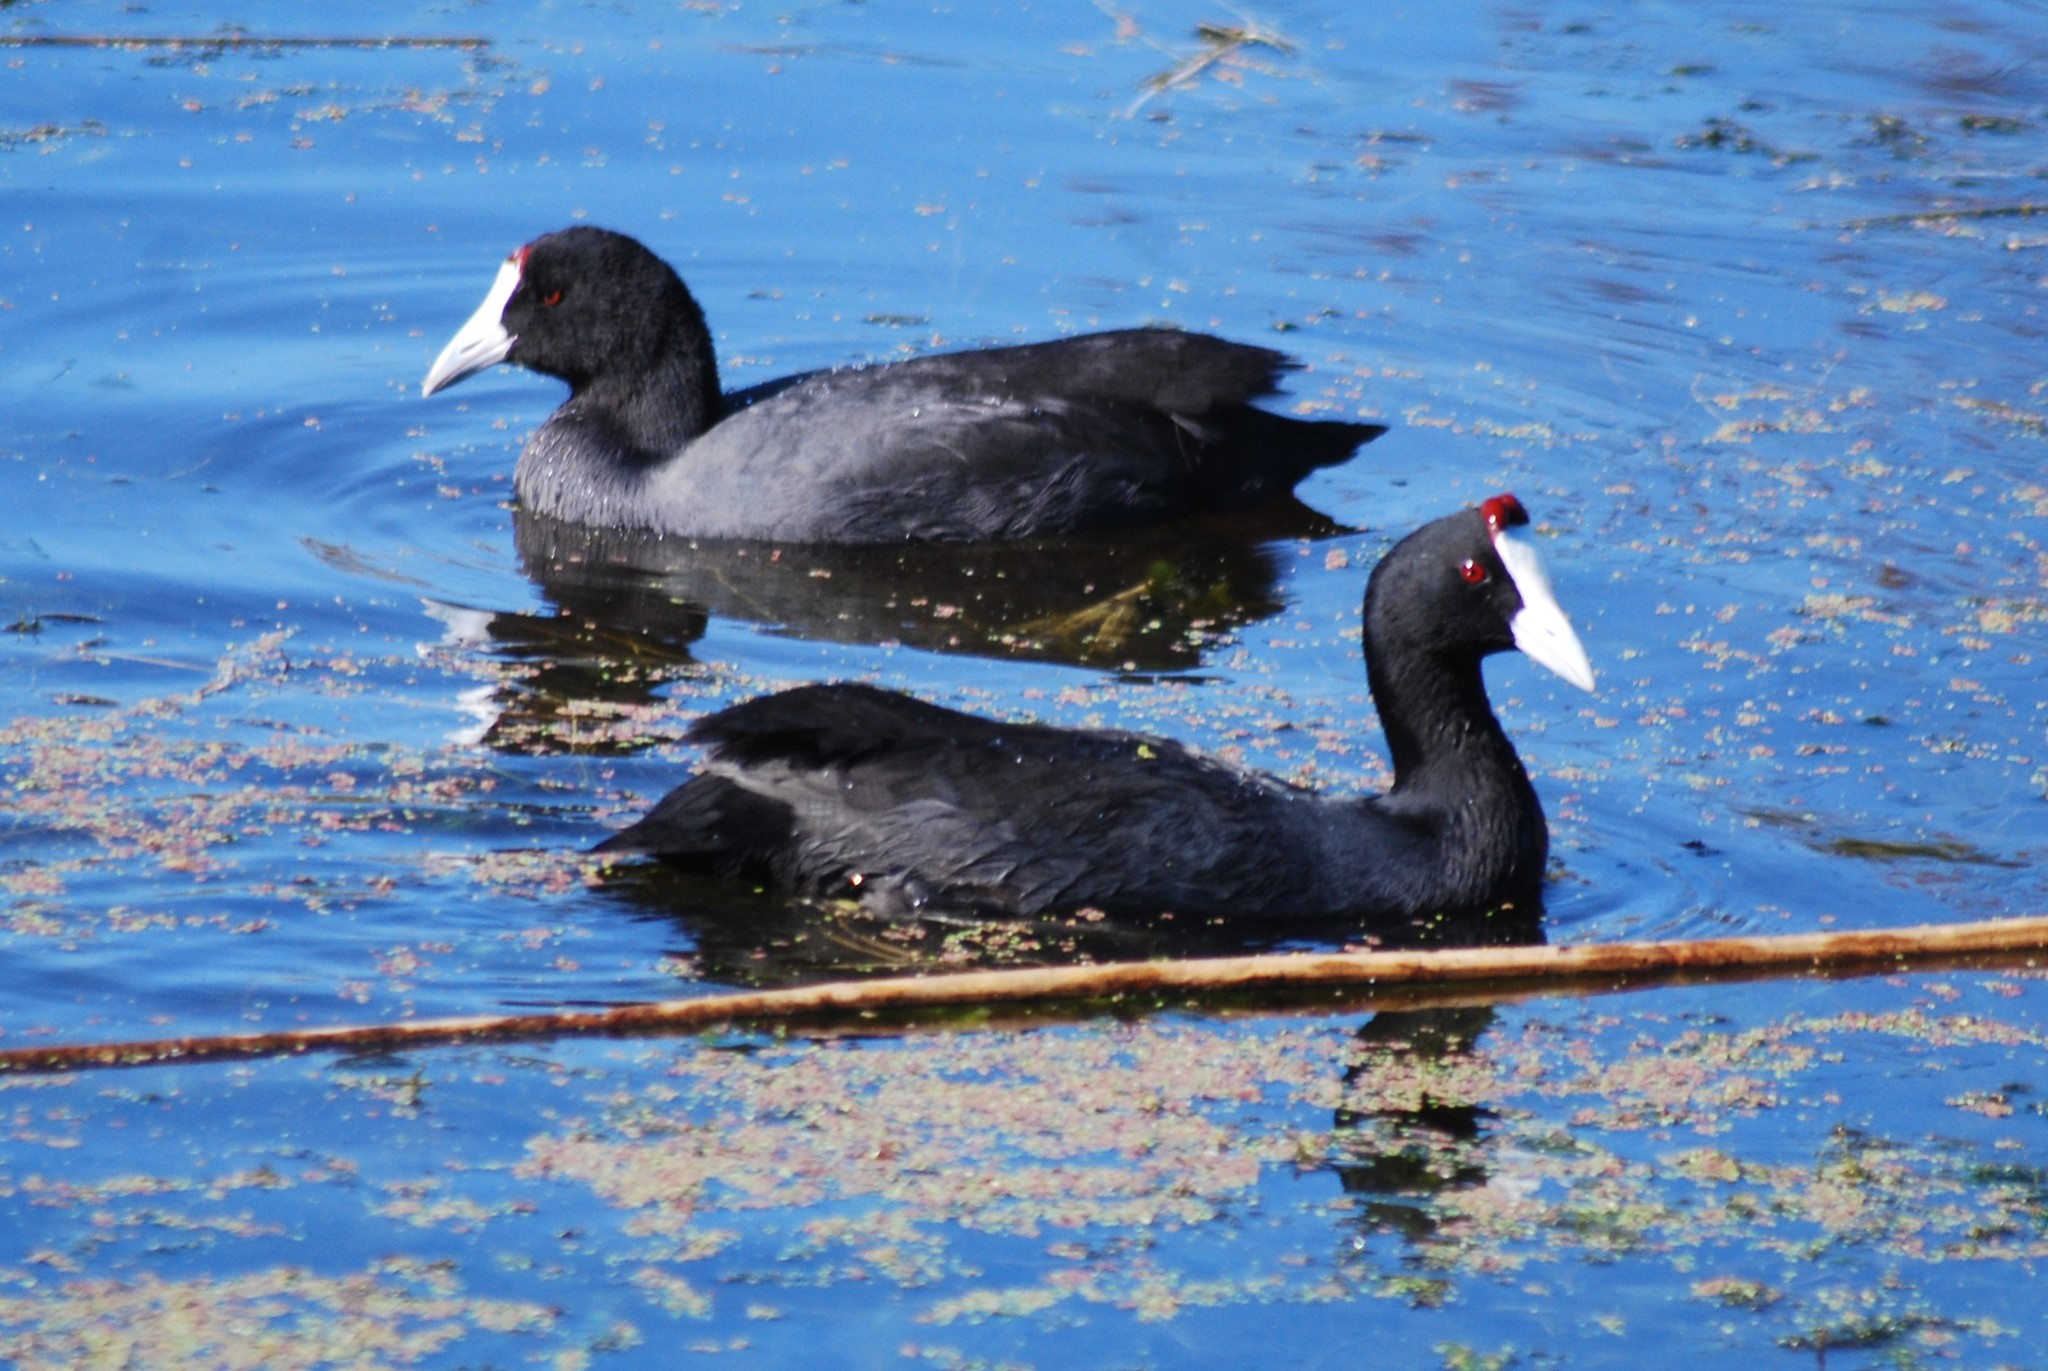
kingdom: Animalia
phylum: Chordata
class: Aves
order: Gruiformes
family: Rallidae
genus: Fulica
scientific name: Fulica cristata
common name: Red-knobbed coot
